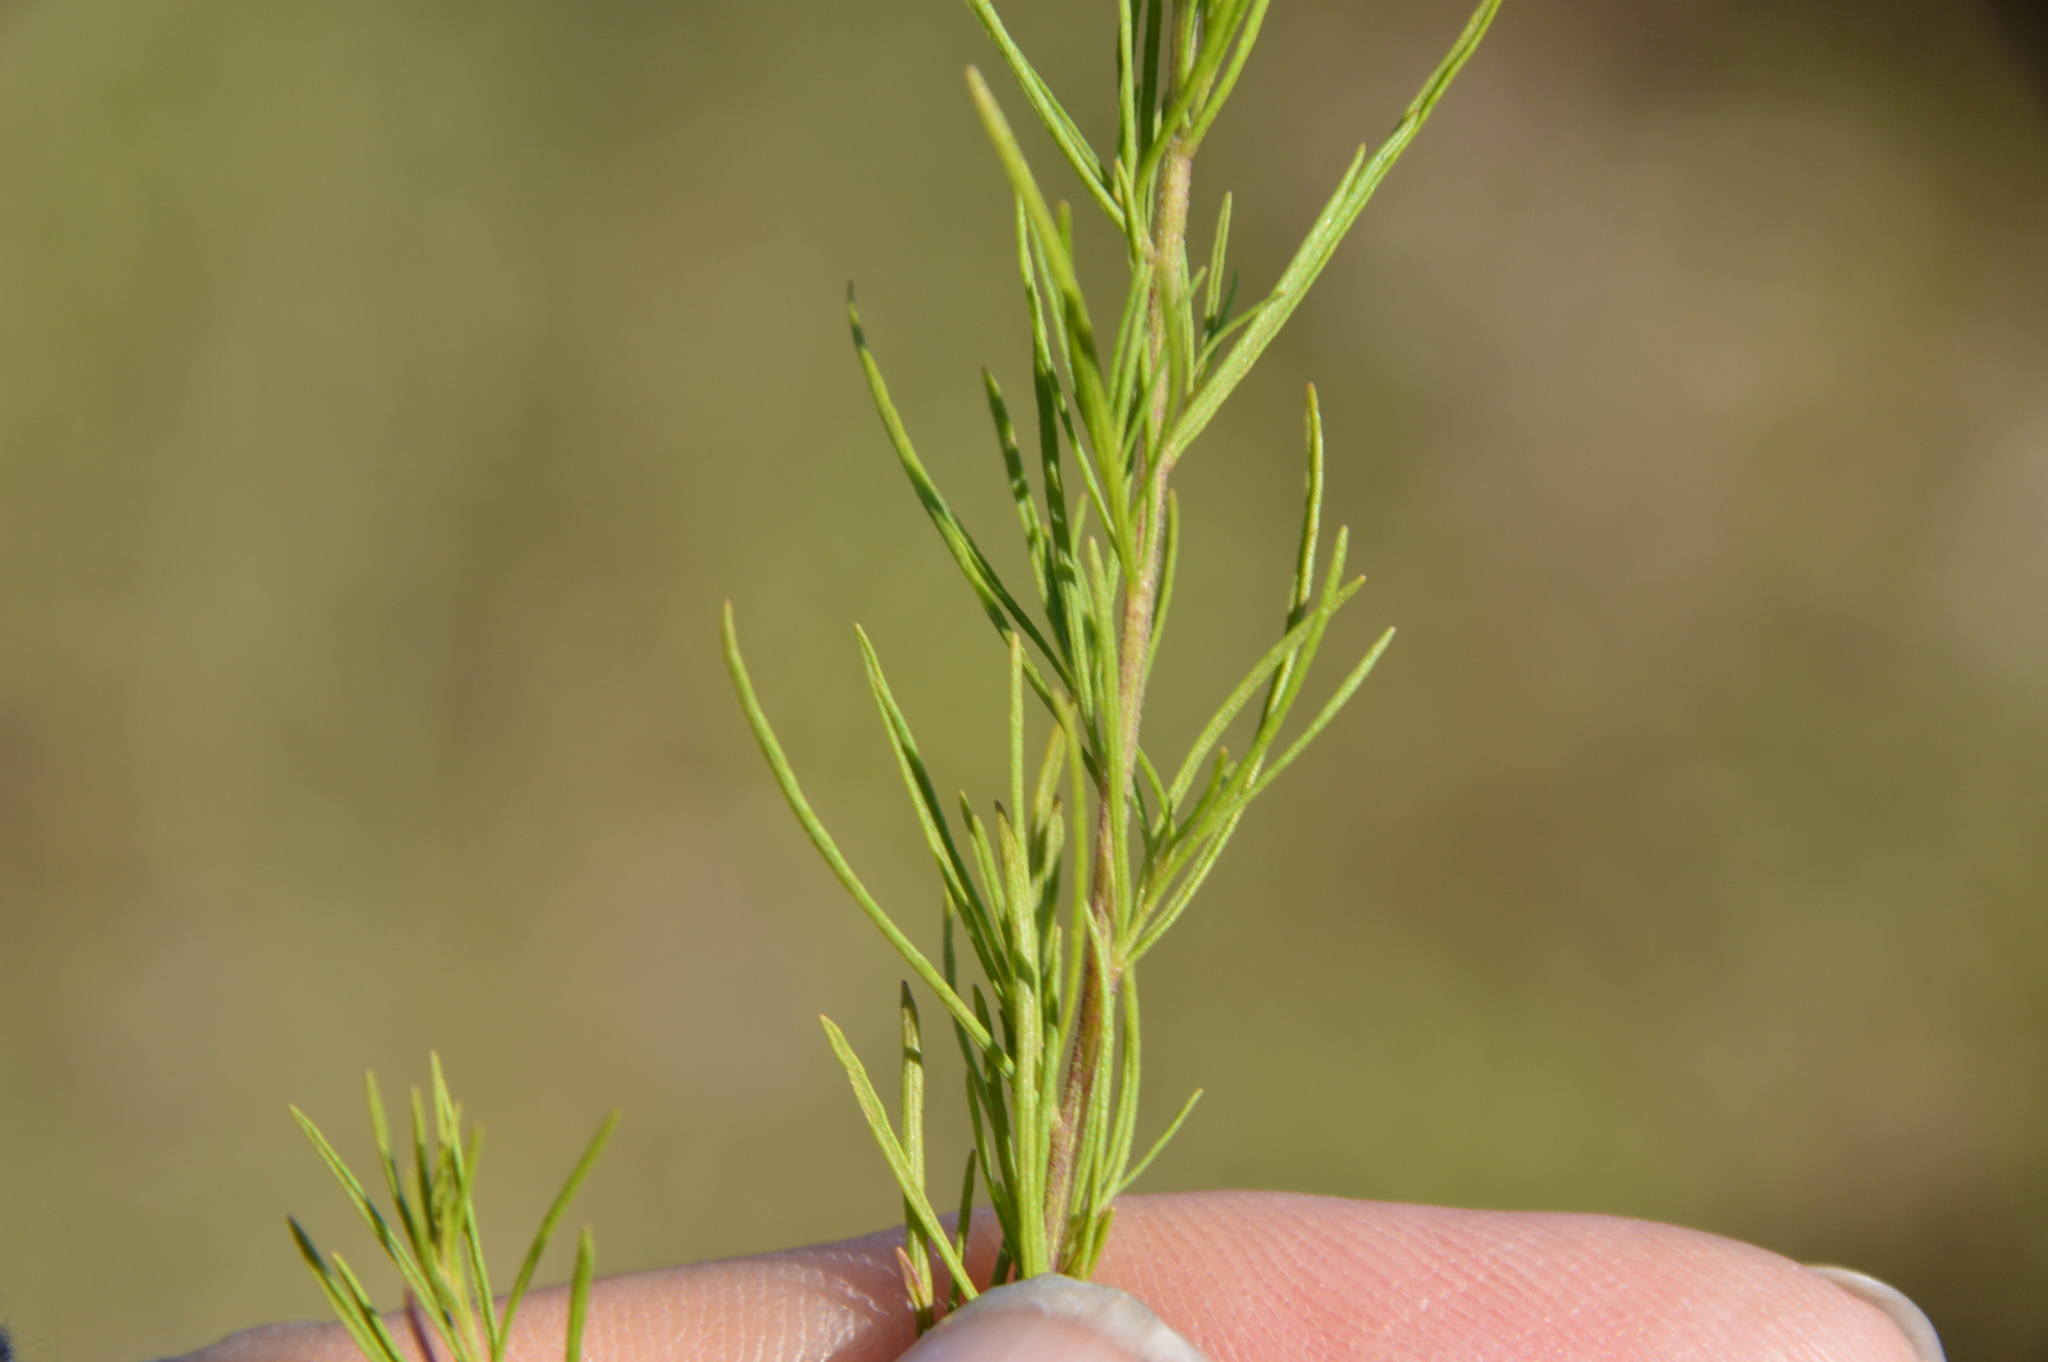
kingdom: Plantae
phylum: Tracheophyta
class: Magnoliopsida
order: Asterales
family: Asteraceae
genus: Eupatorium
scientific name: Eupatorium capillifolium
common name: Dog-fennel
